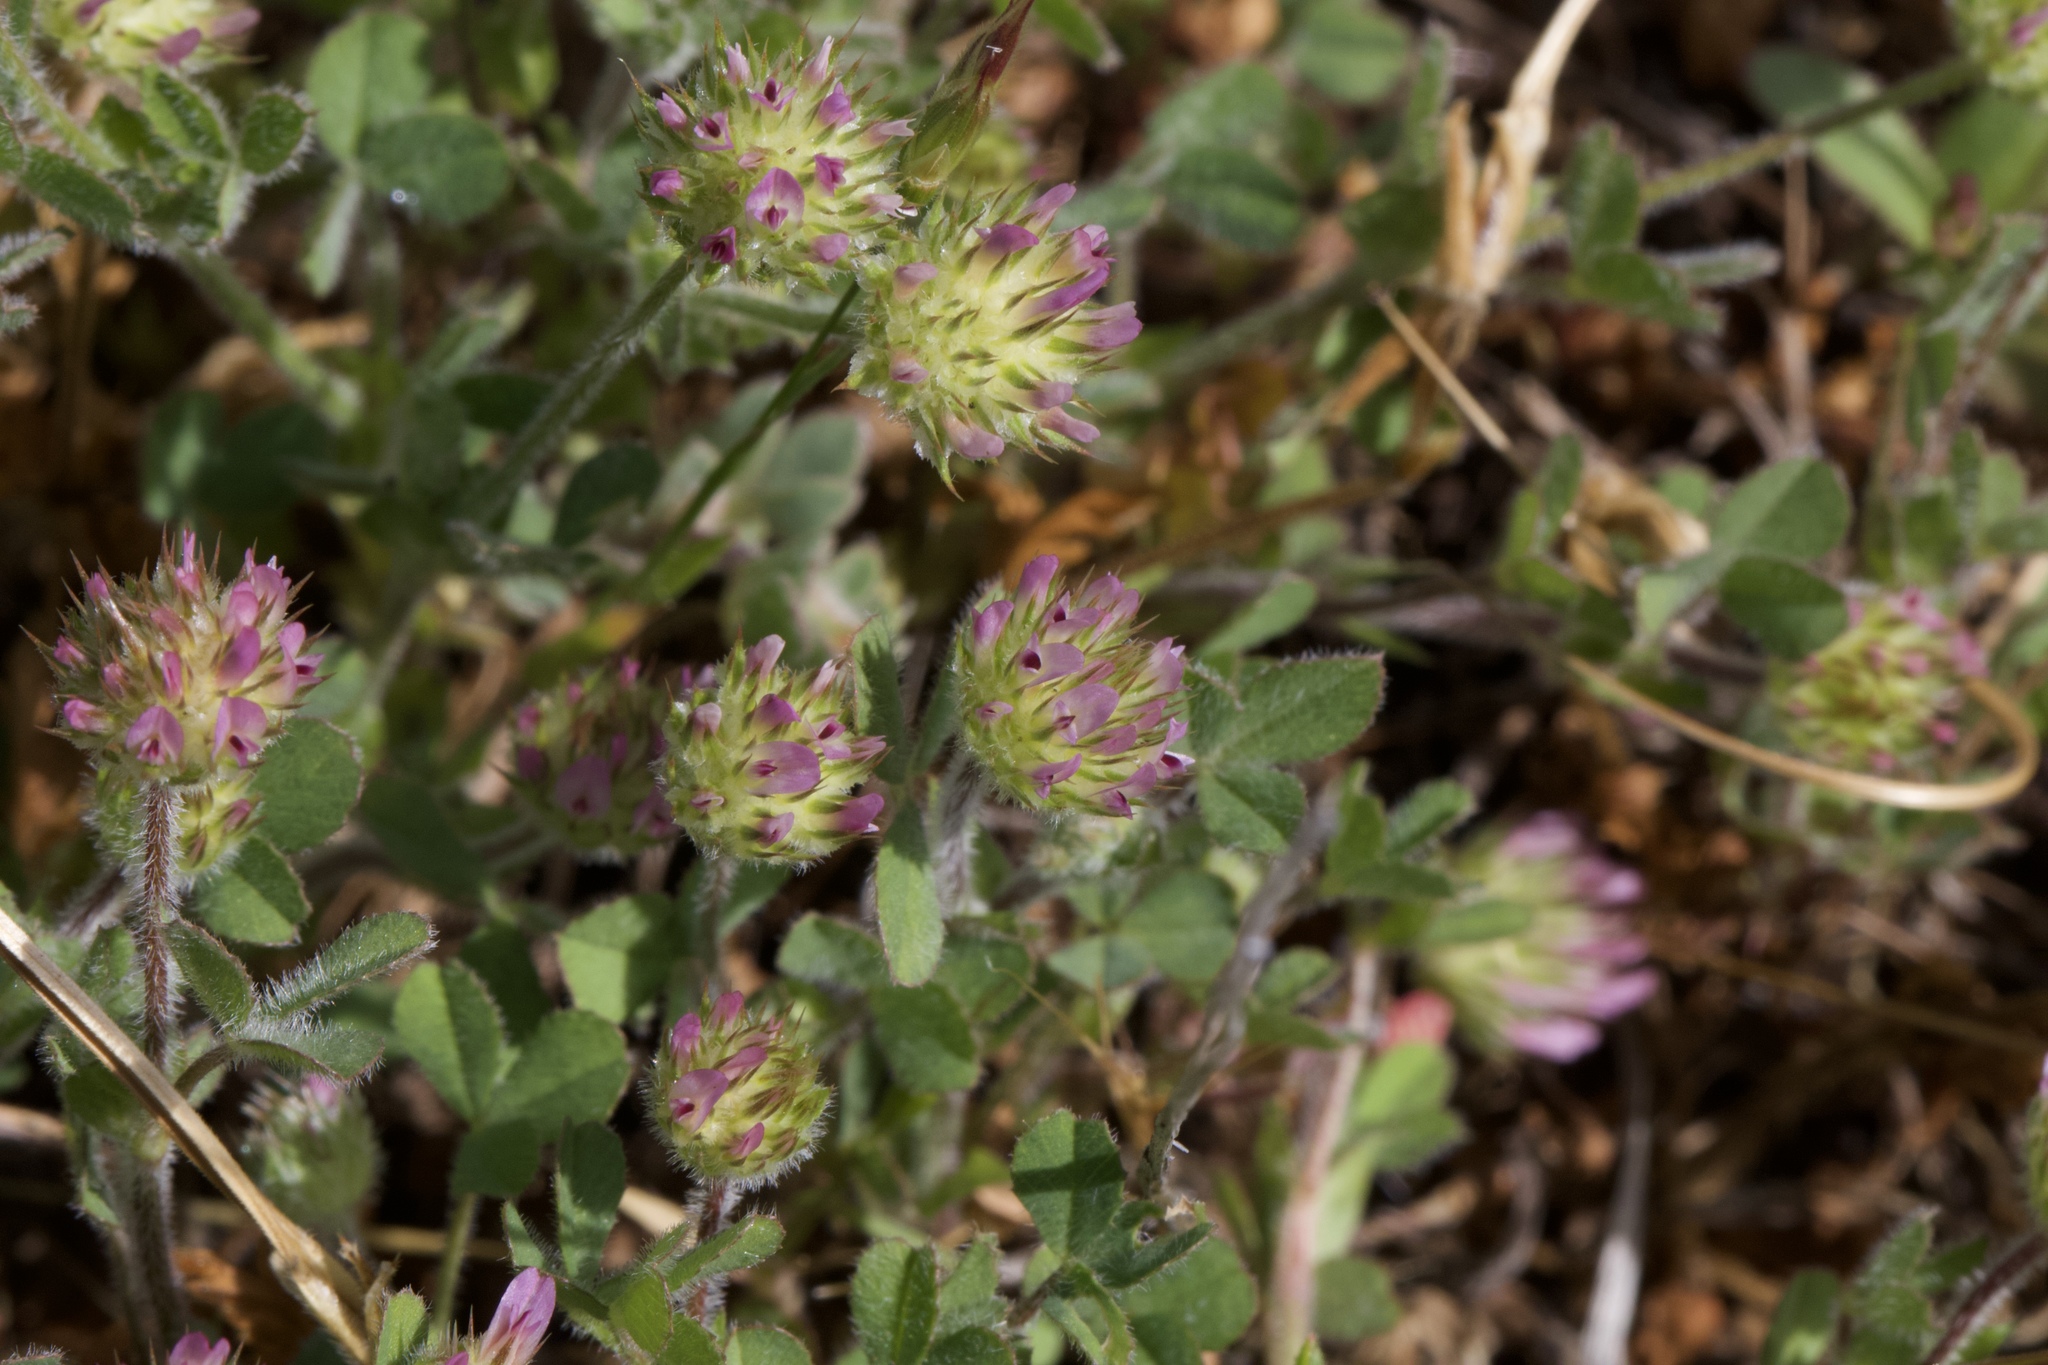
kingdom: Plantae
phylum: Tracheophyta
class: Magnoliopsida
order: Fabales
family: Fabaceae
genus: Trifolium
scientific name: Trifolium microcephalum
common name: Maiden clover
